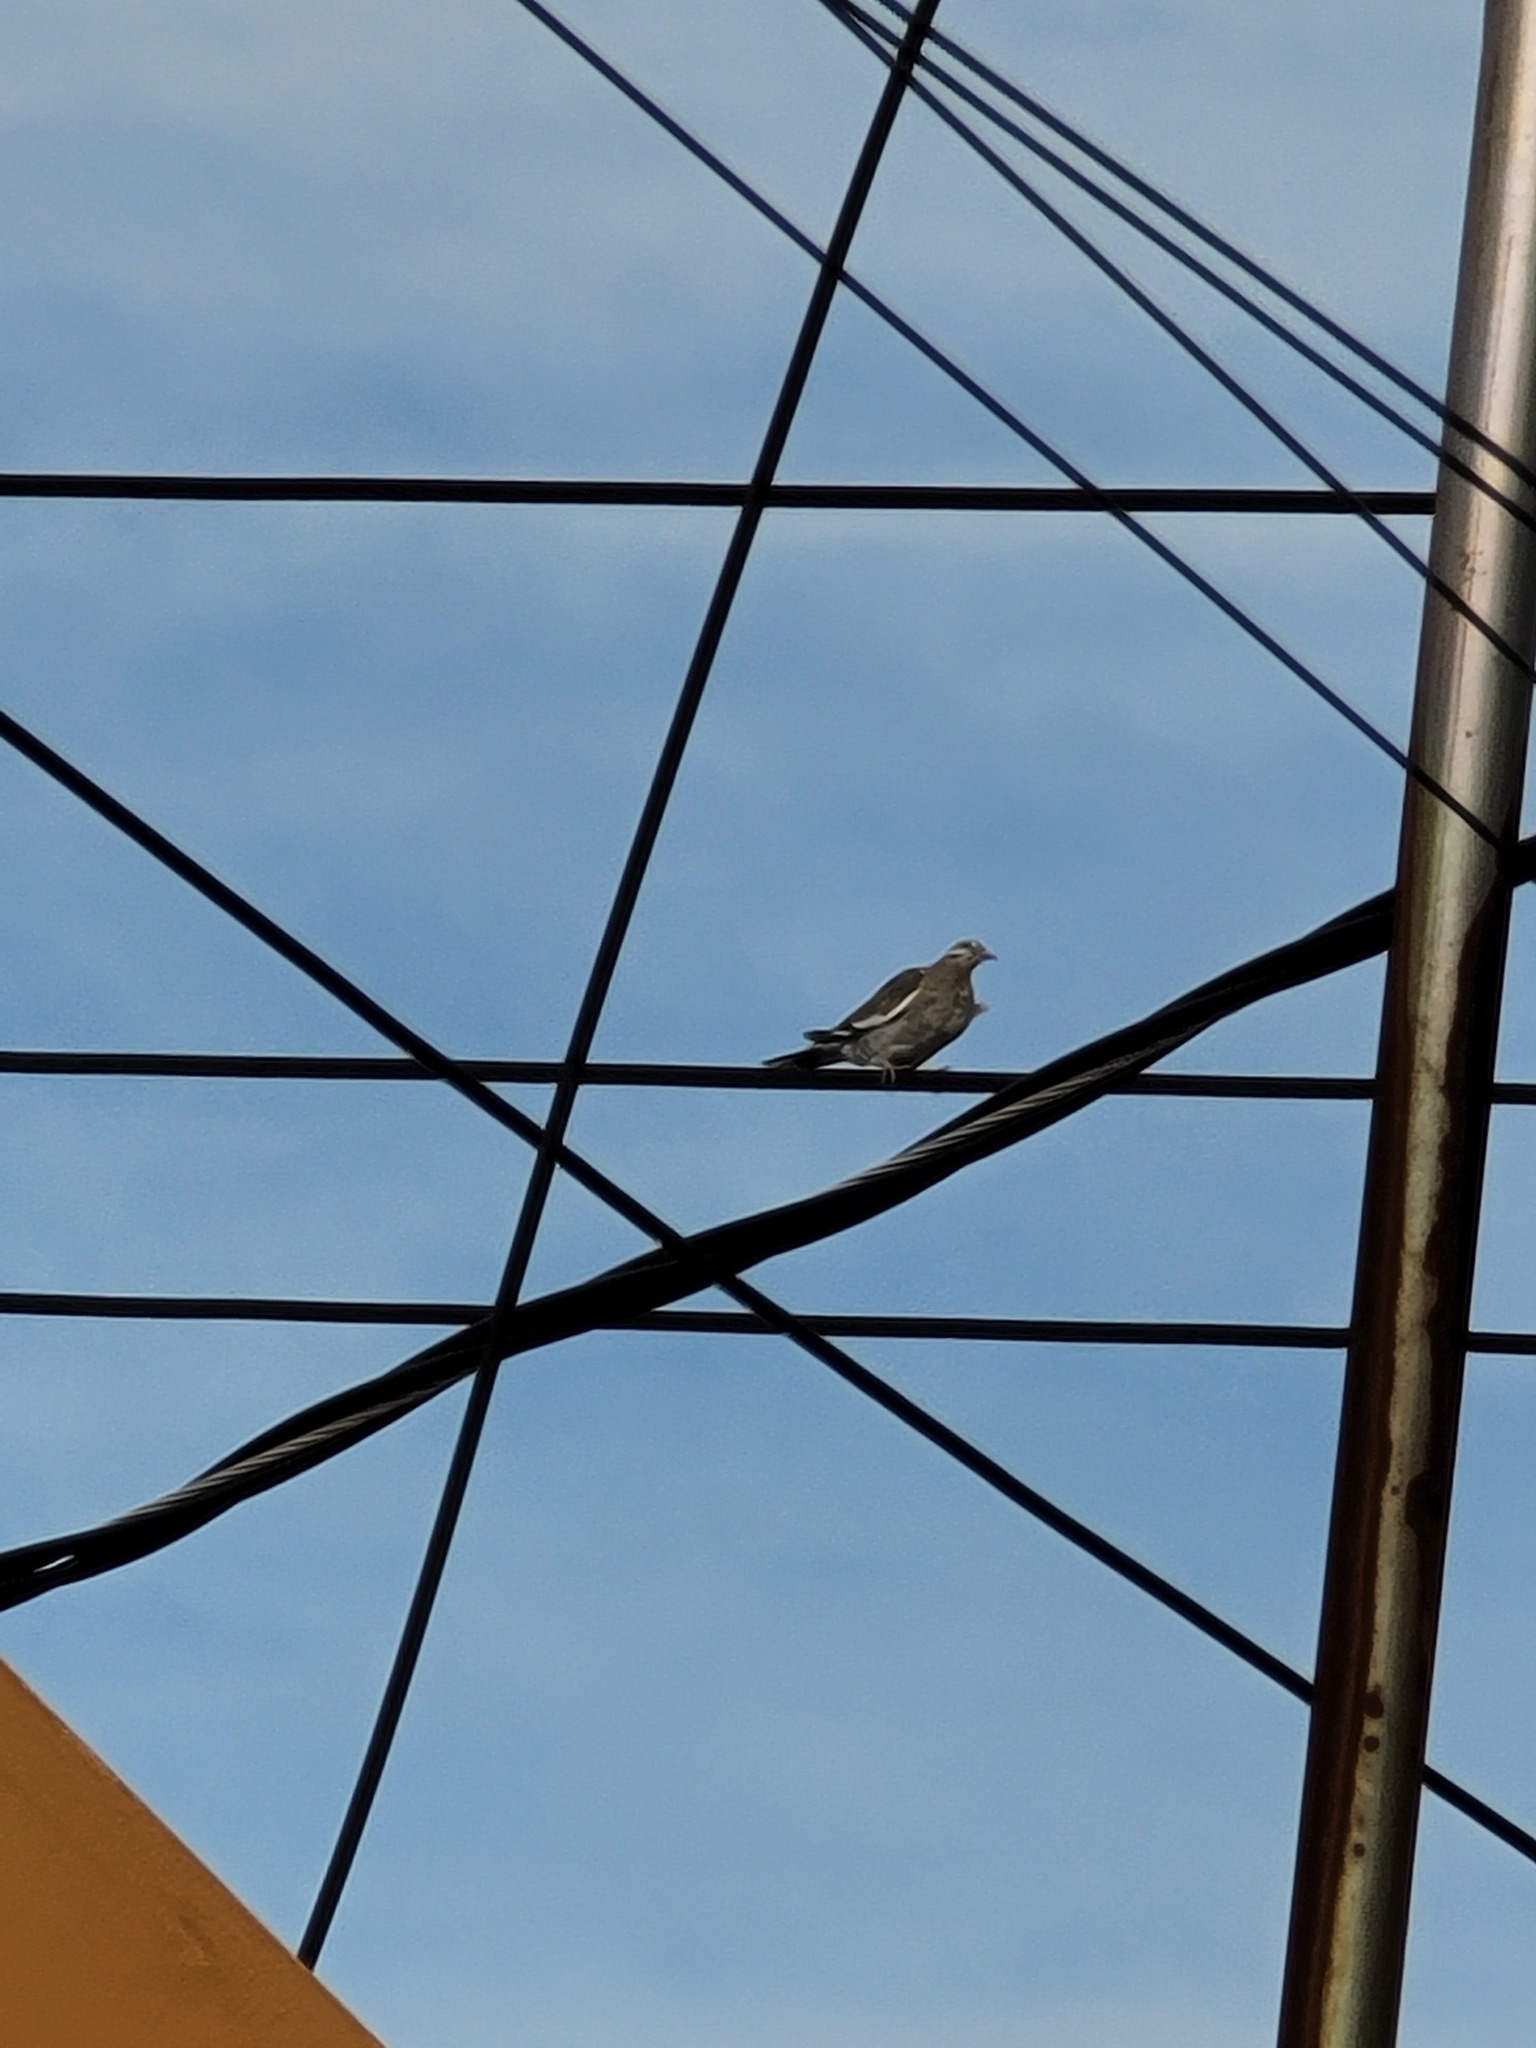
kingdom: Animalia
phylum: Chordata
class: Aves
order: Columbiformes
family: Columbidae
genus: Zenaida
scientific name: Zenaida asiatica
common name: White-winged dove
